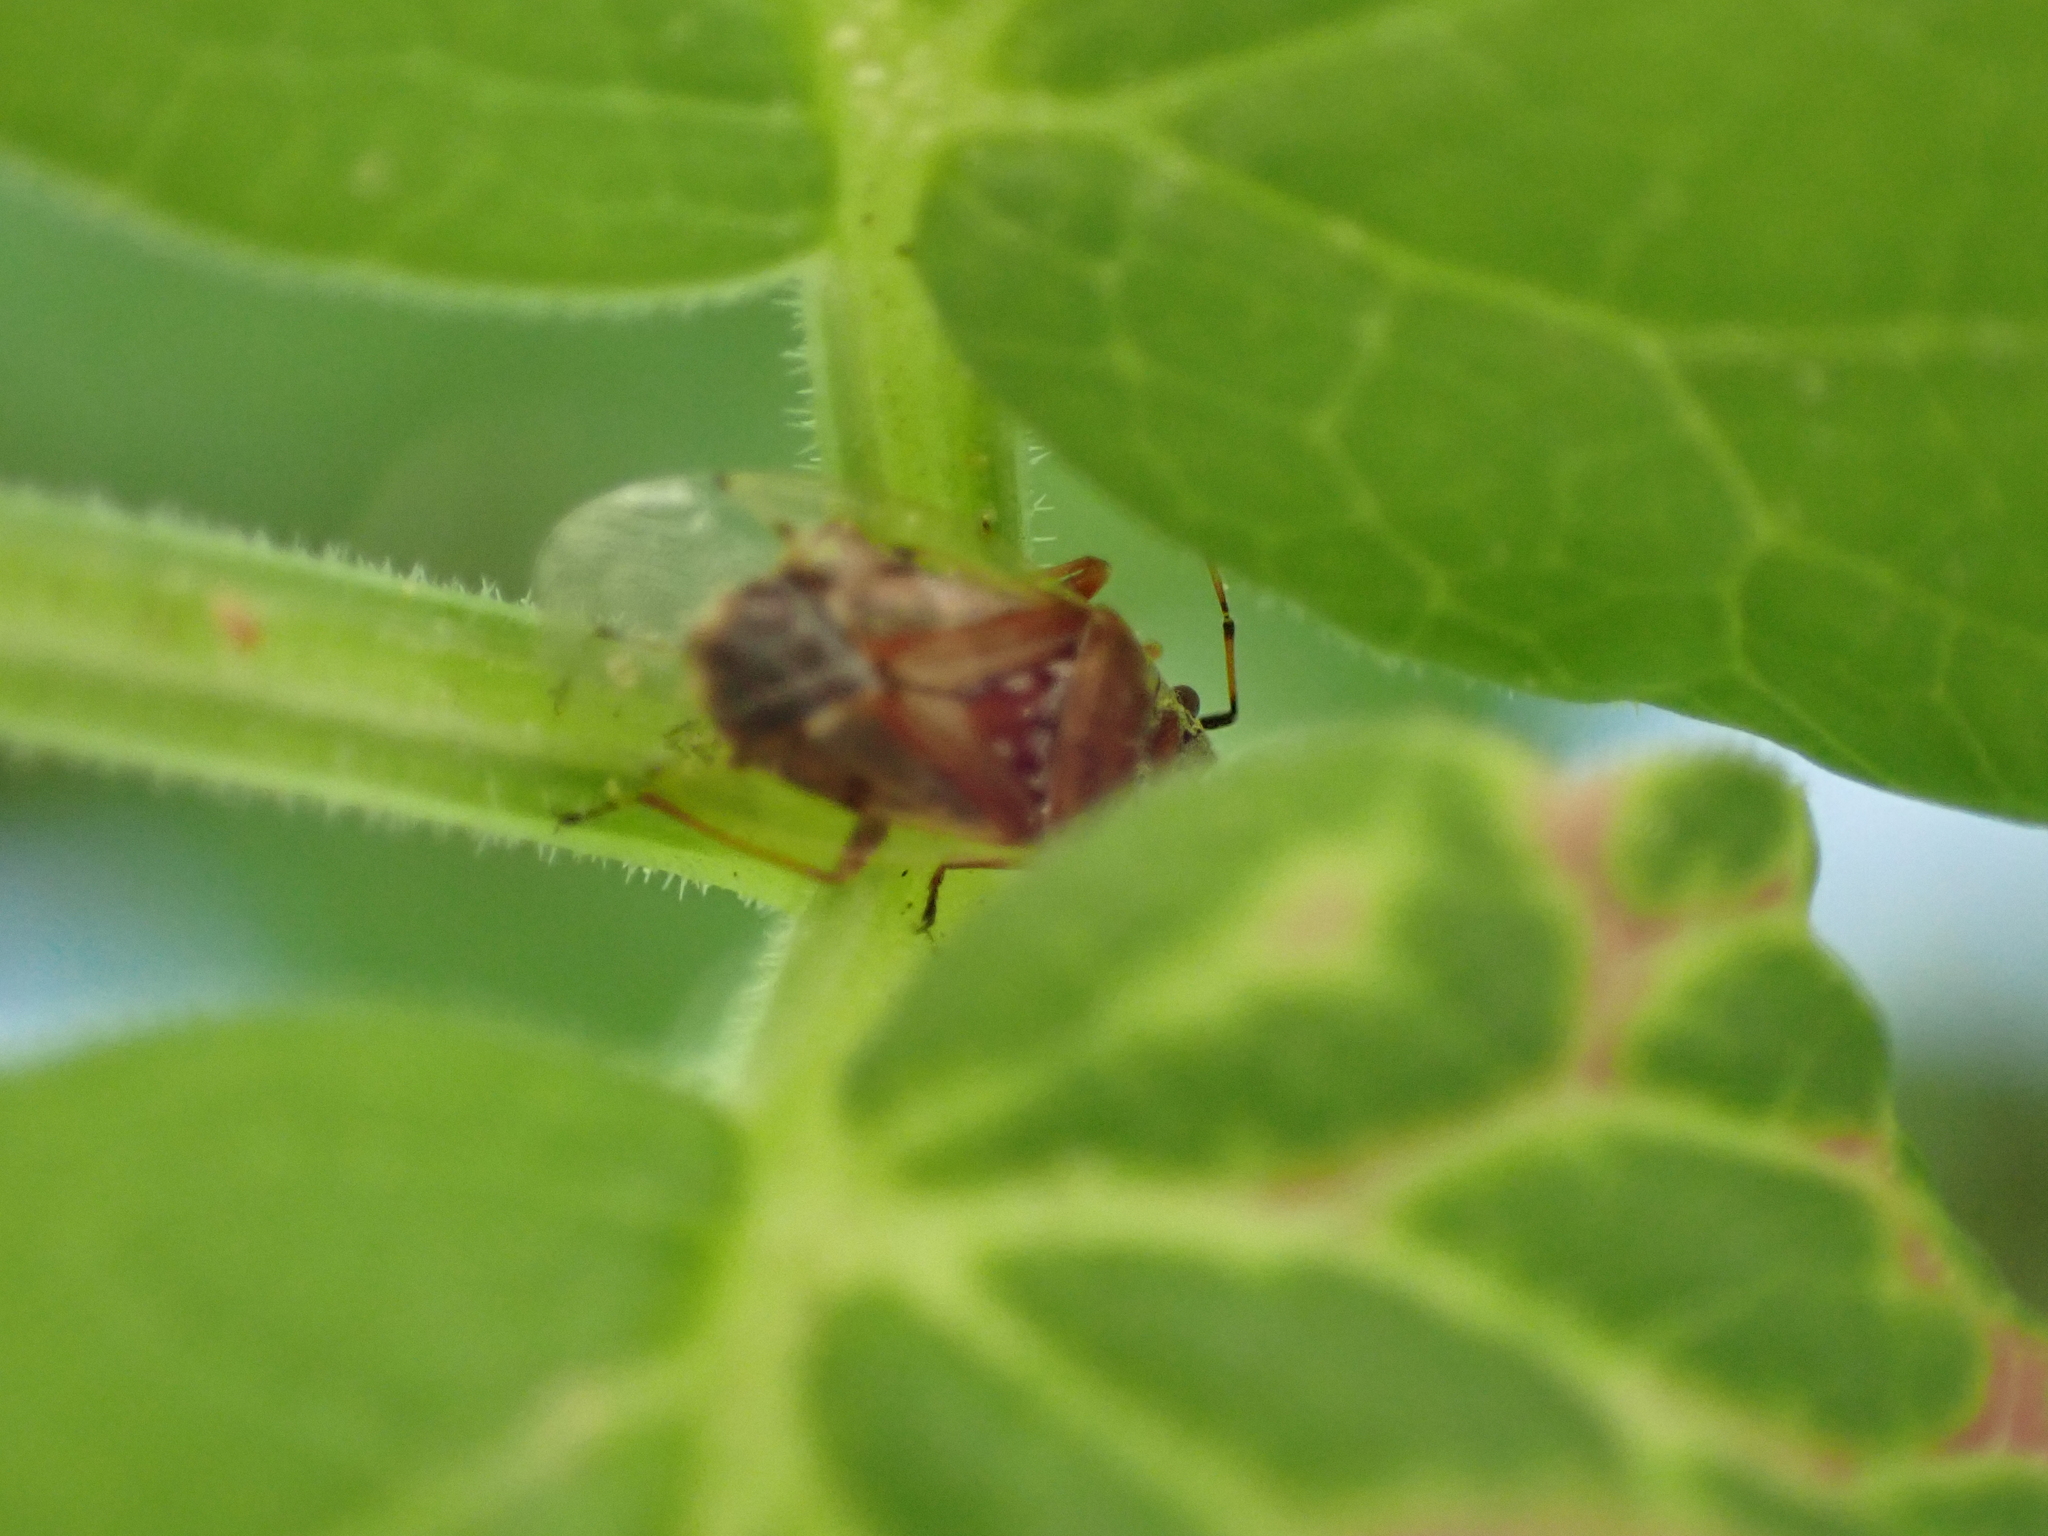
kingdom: Animalia
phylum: Arthropoda
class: Insecta
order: Hemiptera
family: Lygaeidae
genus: Kleidocerys
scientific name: Kleidocerys resedae
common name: Birch catkin bug
